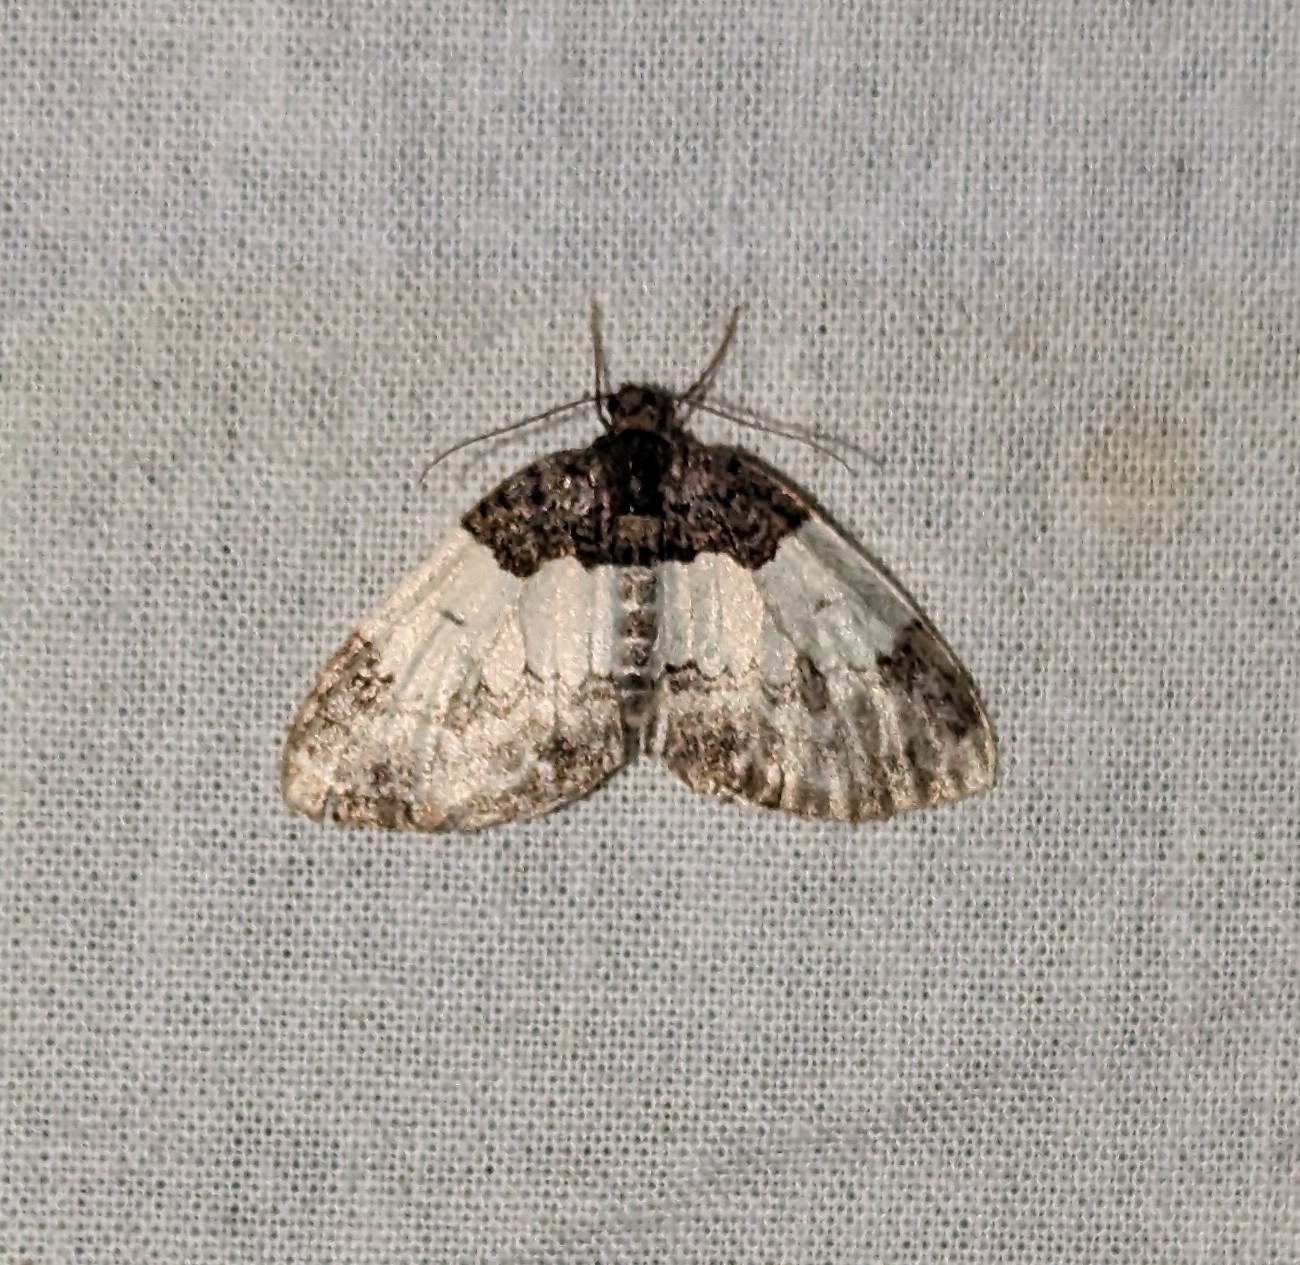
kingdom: Animalia
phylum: Arthropoda
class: Insecta
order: Lepidoptera
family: Geometridae
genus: Mesoleuca
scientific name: Mesoleuca ruficillata
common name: White-ribboned carpet moth
